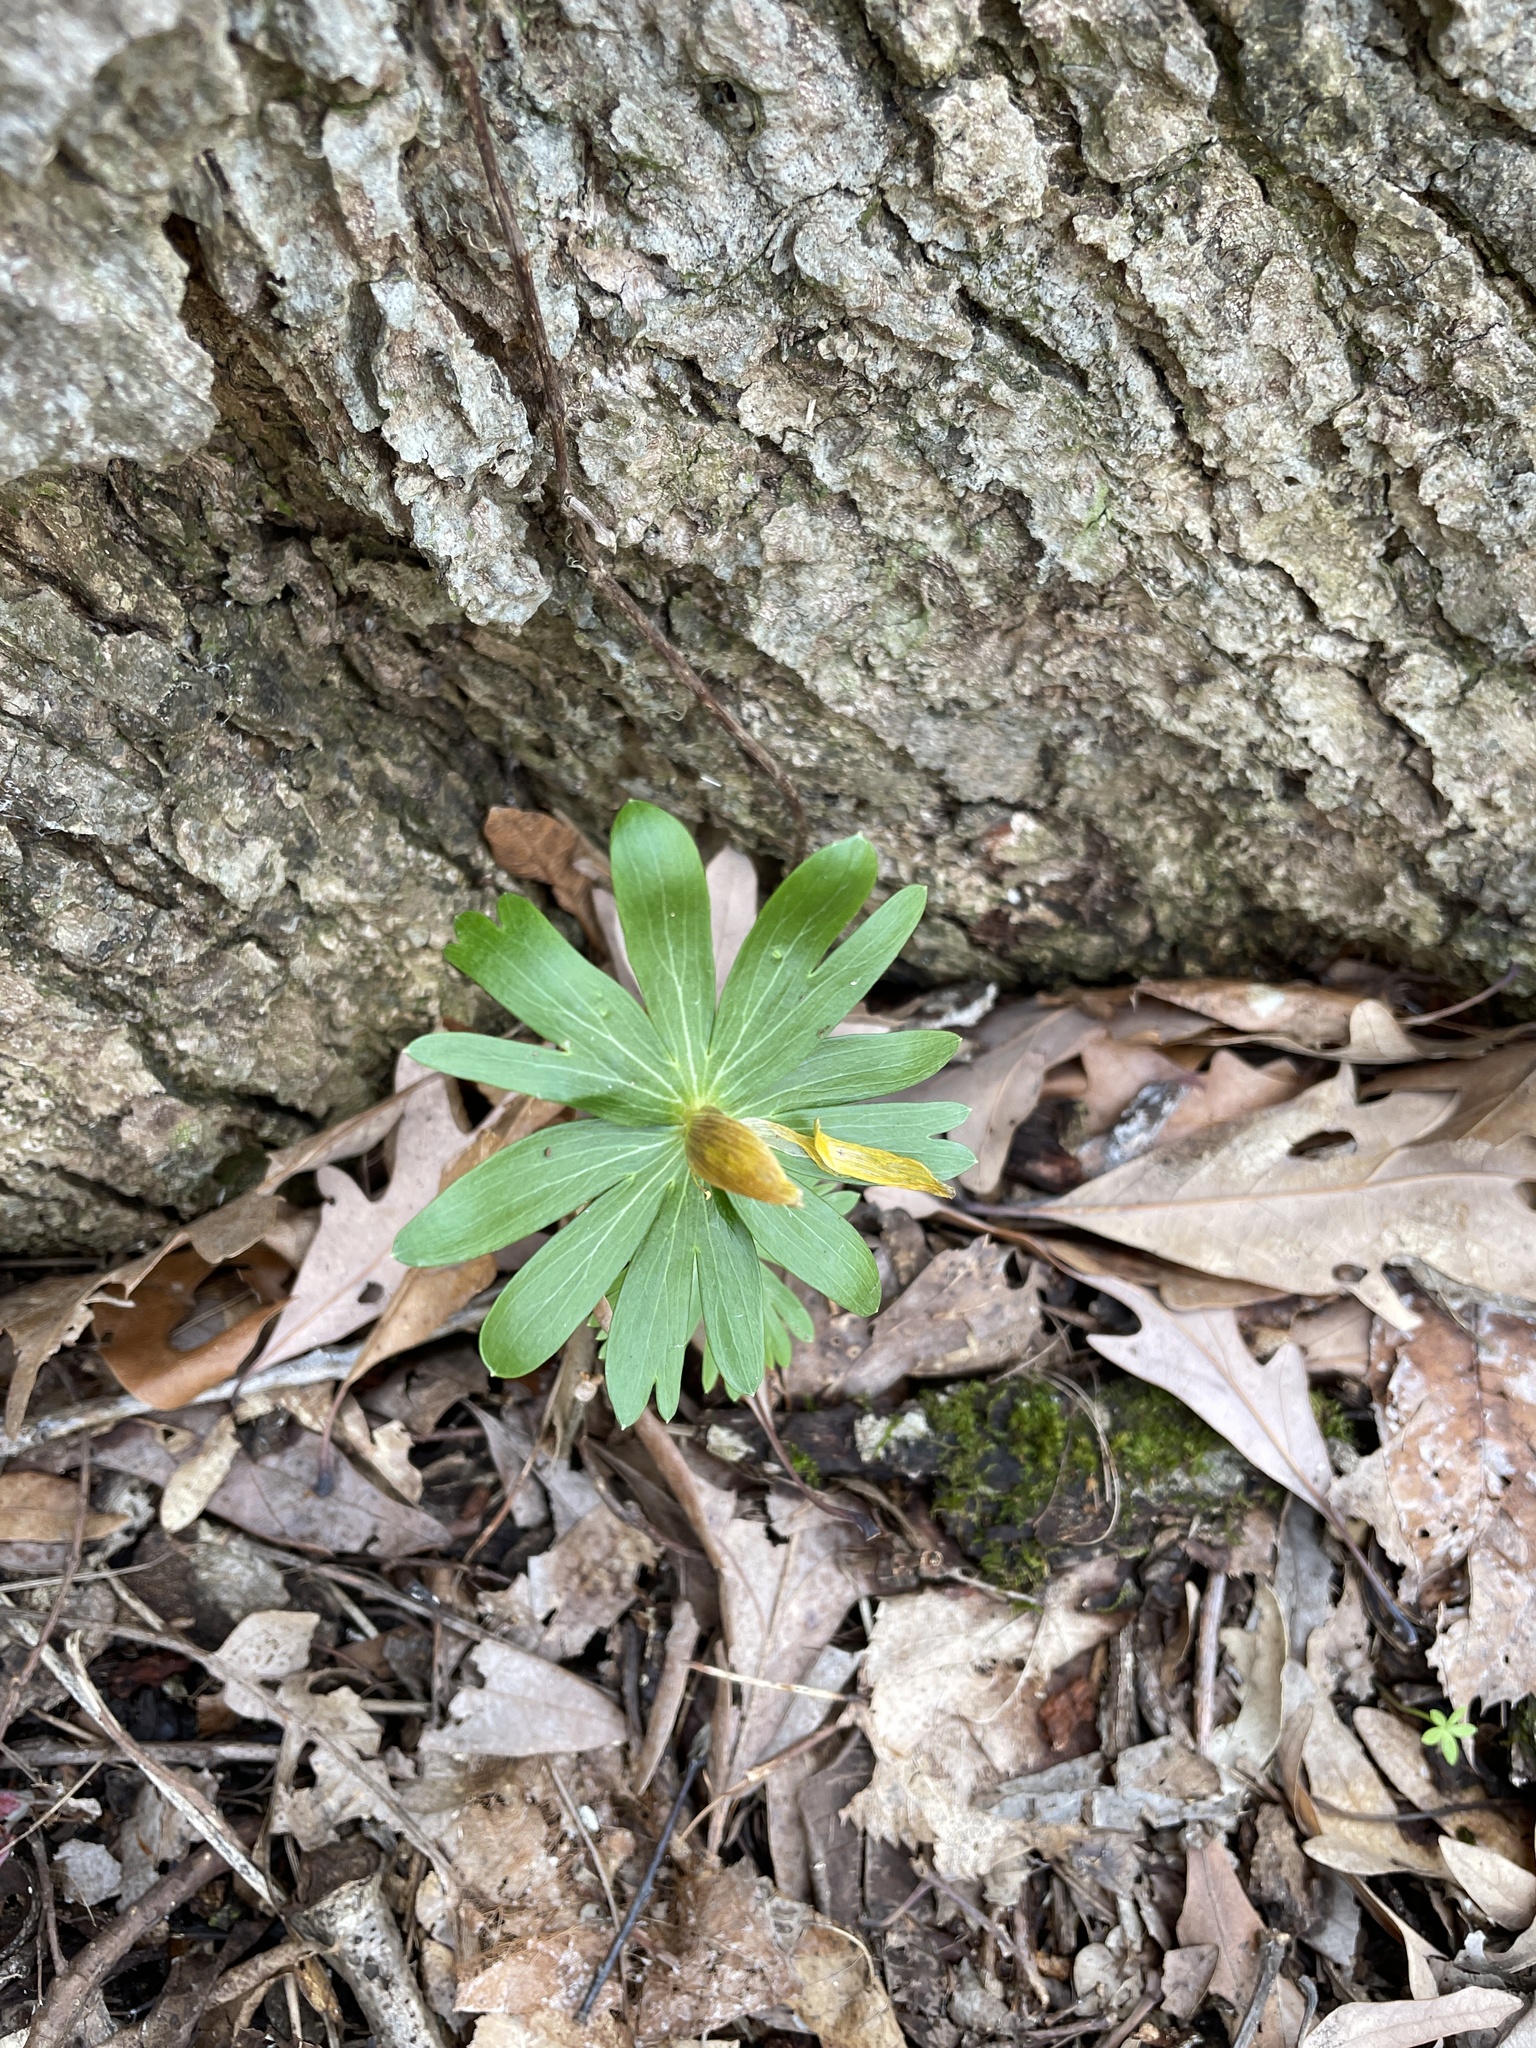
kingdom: Plantae
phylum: Tracheophyta
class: Magnoliopsida
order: Ranunculales
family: Ranunculaceae
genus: Eranthis
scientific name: Eranthis hyemalis
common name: Winter aconite
